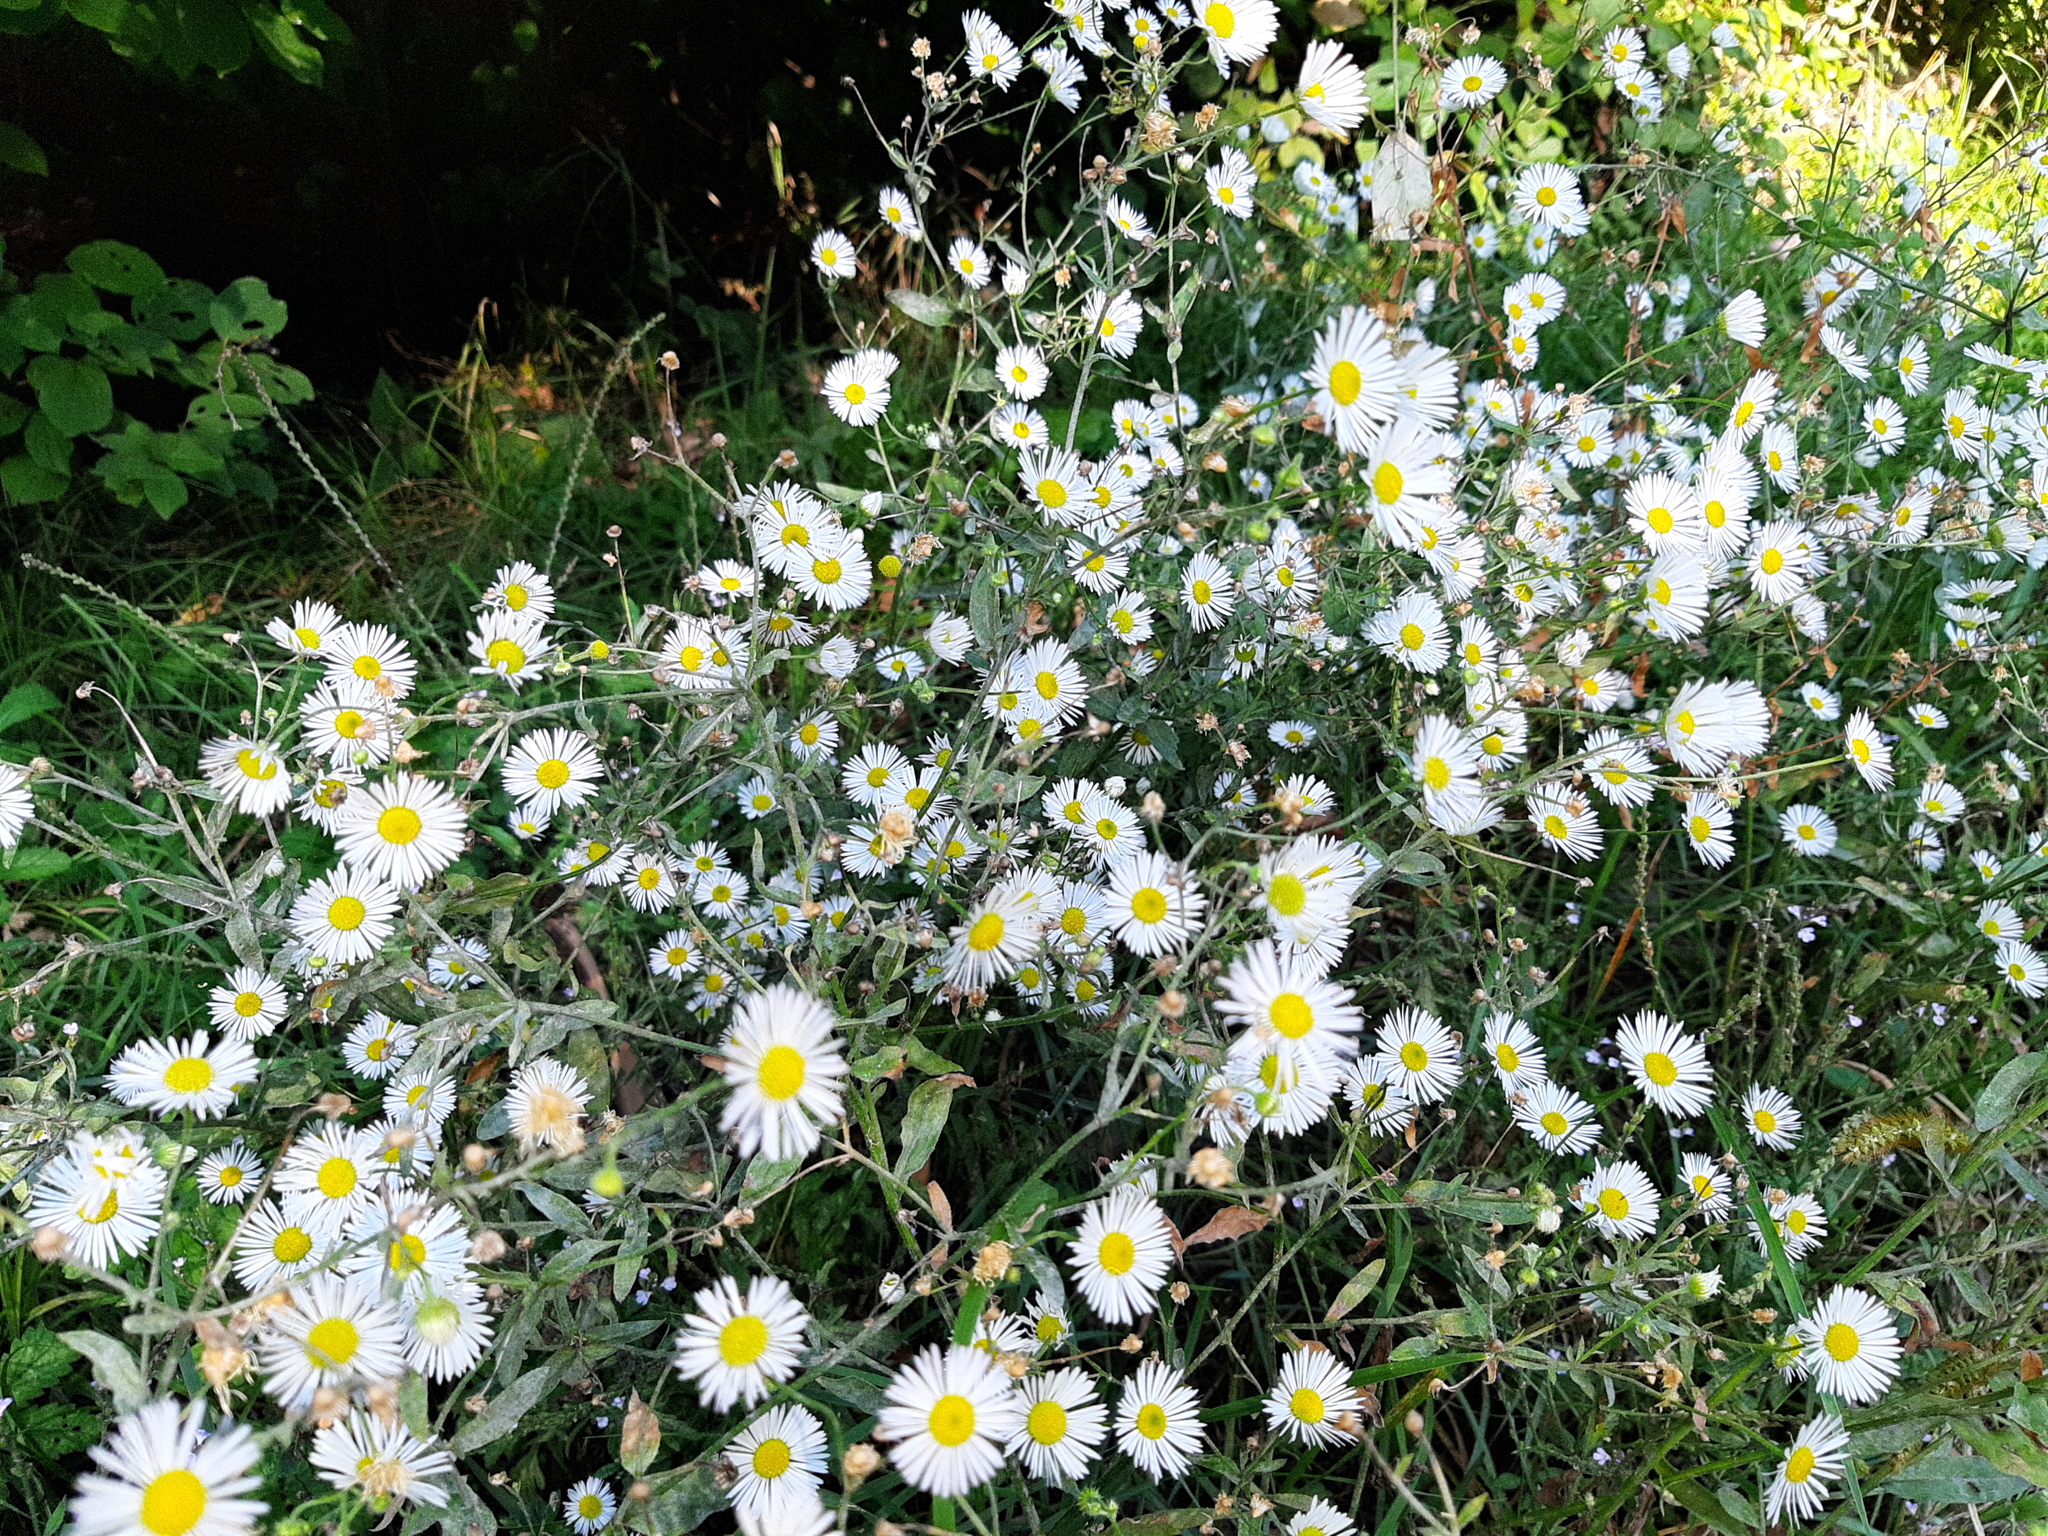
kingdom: Plantae
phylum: Tracheophyta
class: Magnoliopsida
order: Asterales
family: Asteraceae
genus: Erigeron
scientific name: Erigeron annuus
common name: Tall fleabane
